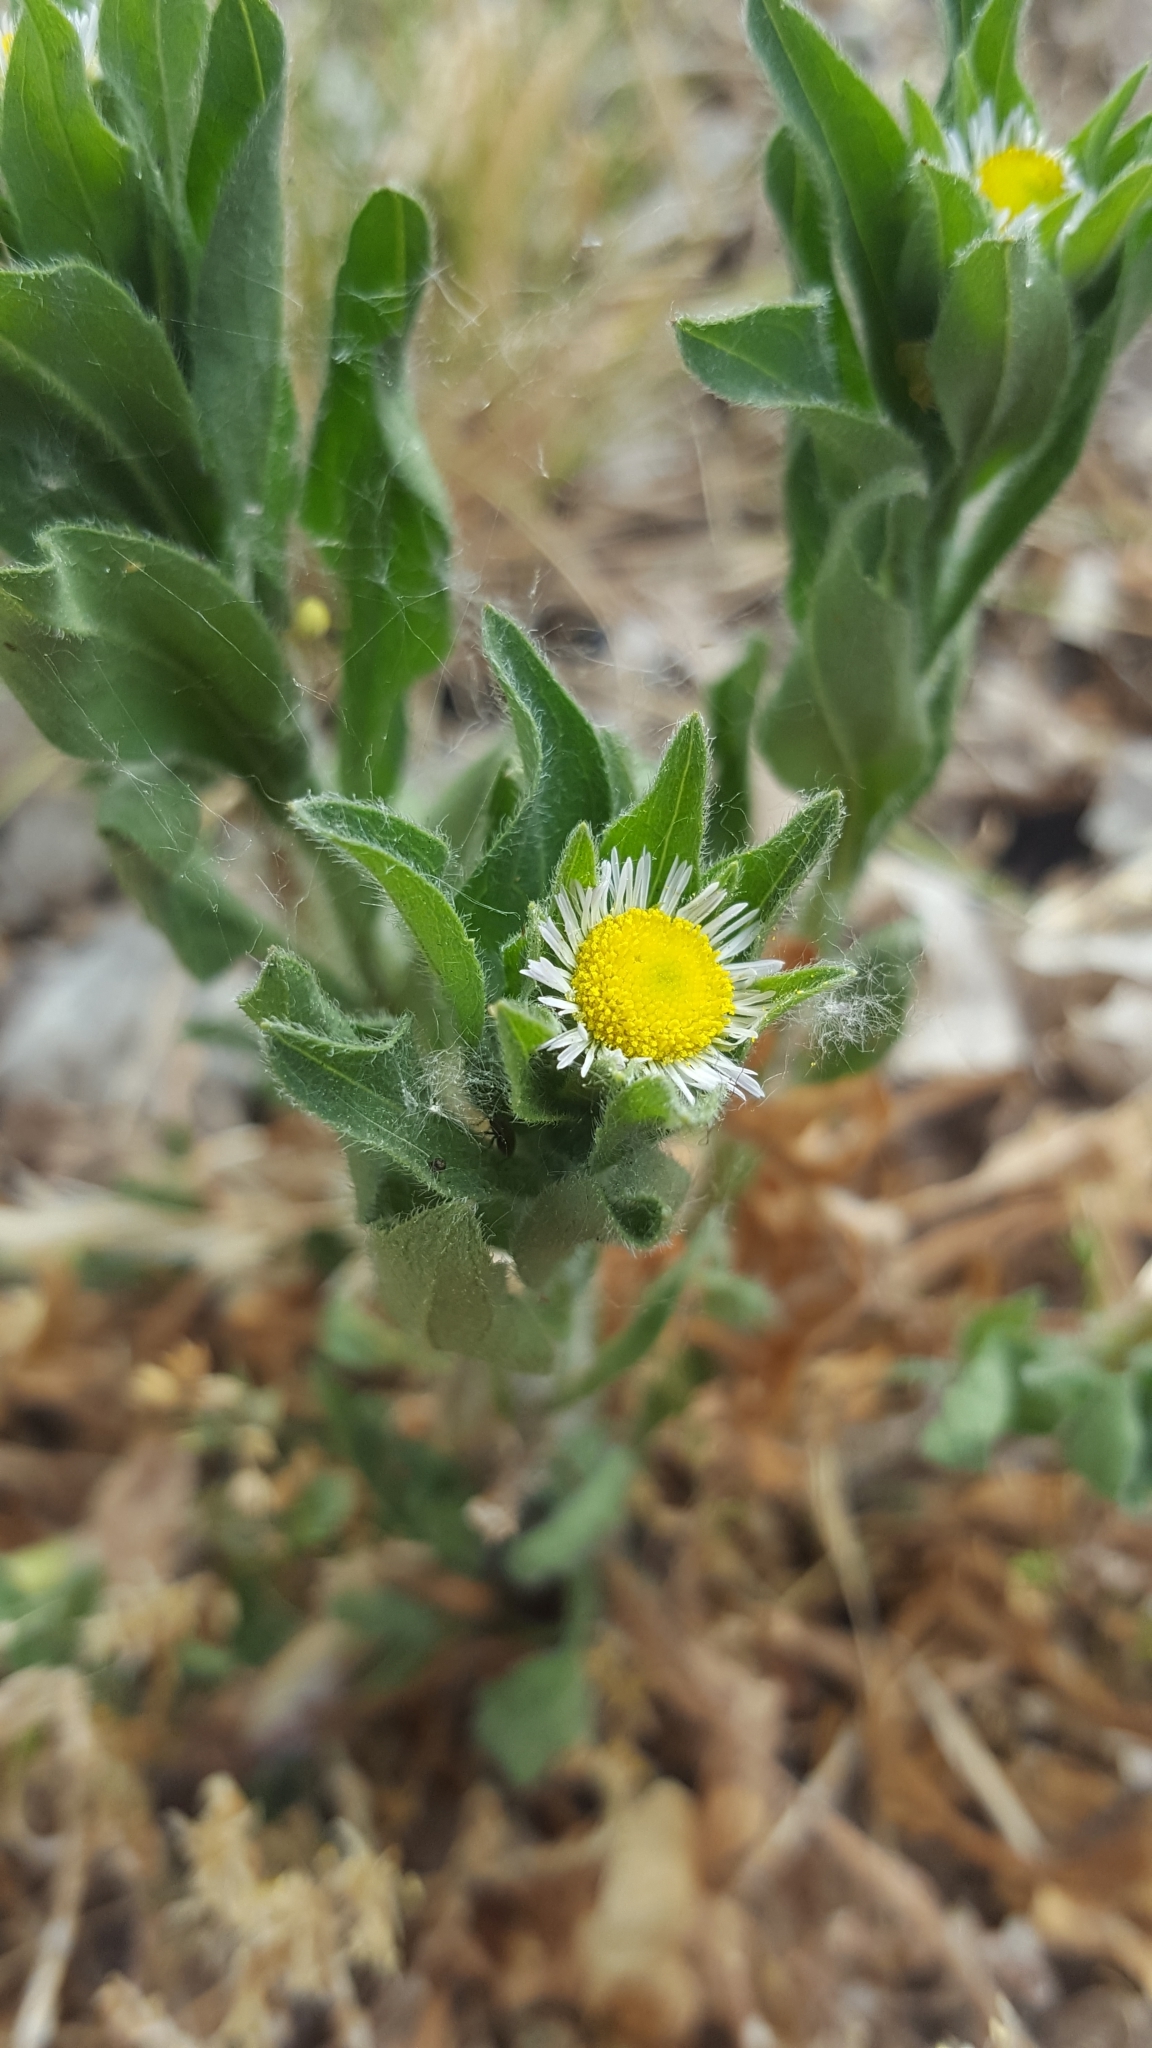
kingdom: Plantae
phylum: Tracheophyta
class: Magnoliopsida
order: Asterales
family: Asteraceae
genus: Erigeron
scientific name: Erigeron annuus
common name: Tall fleabane
